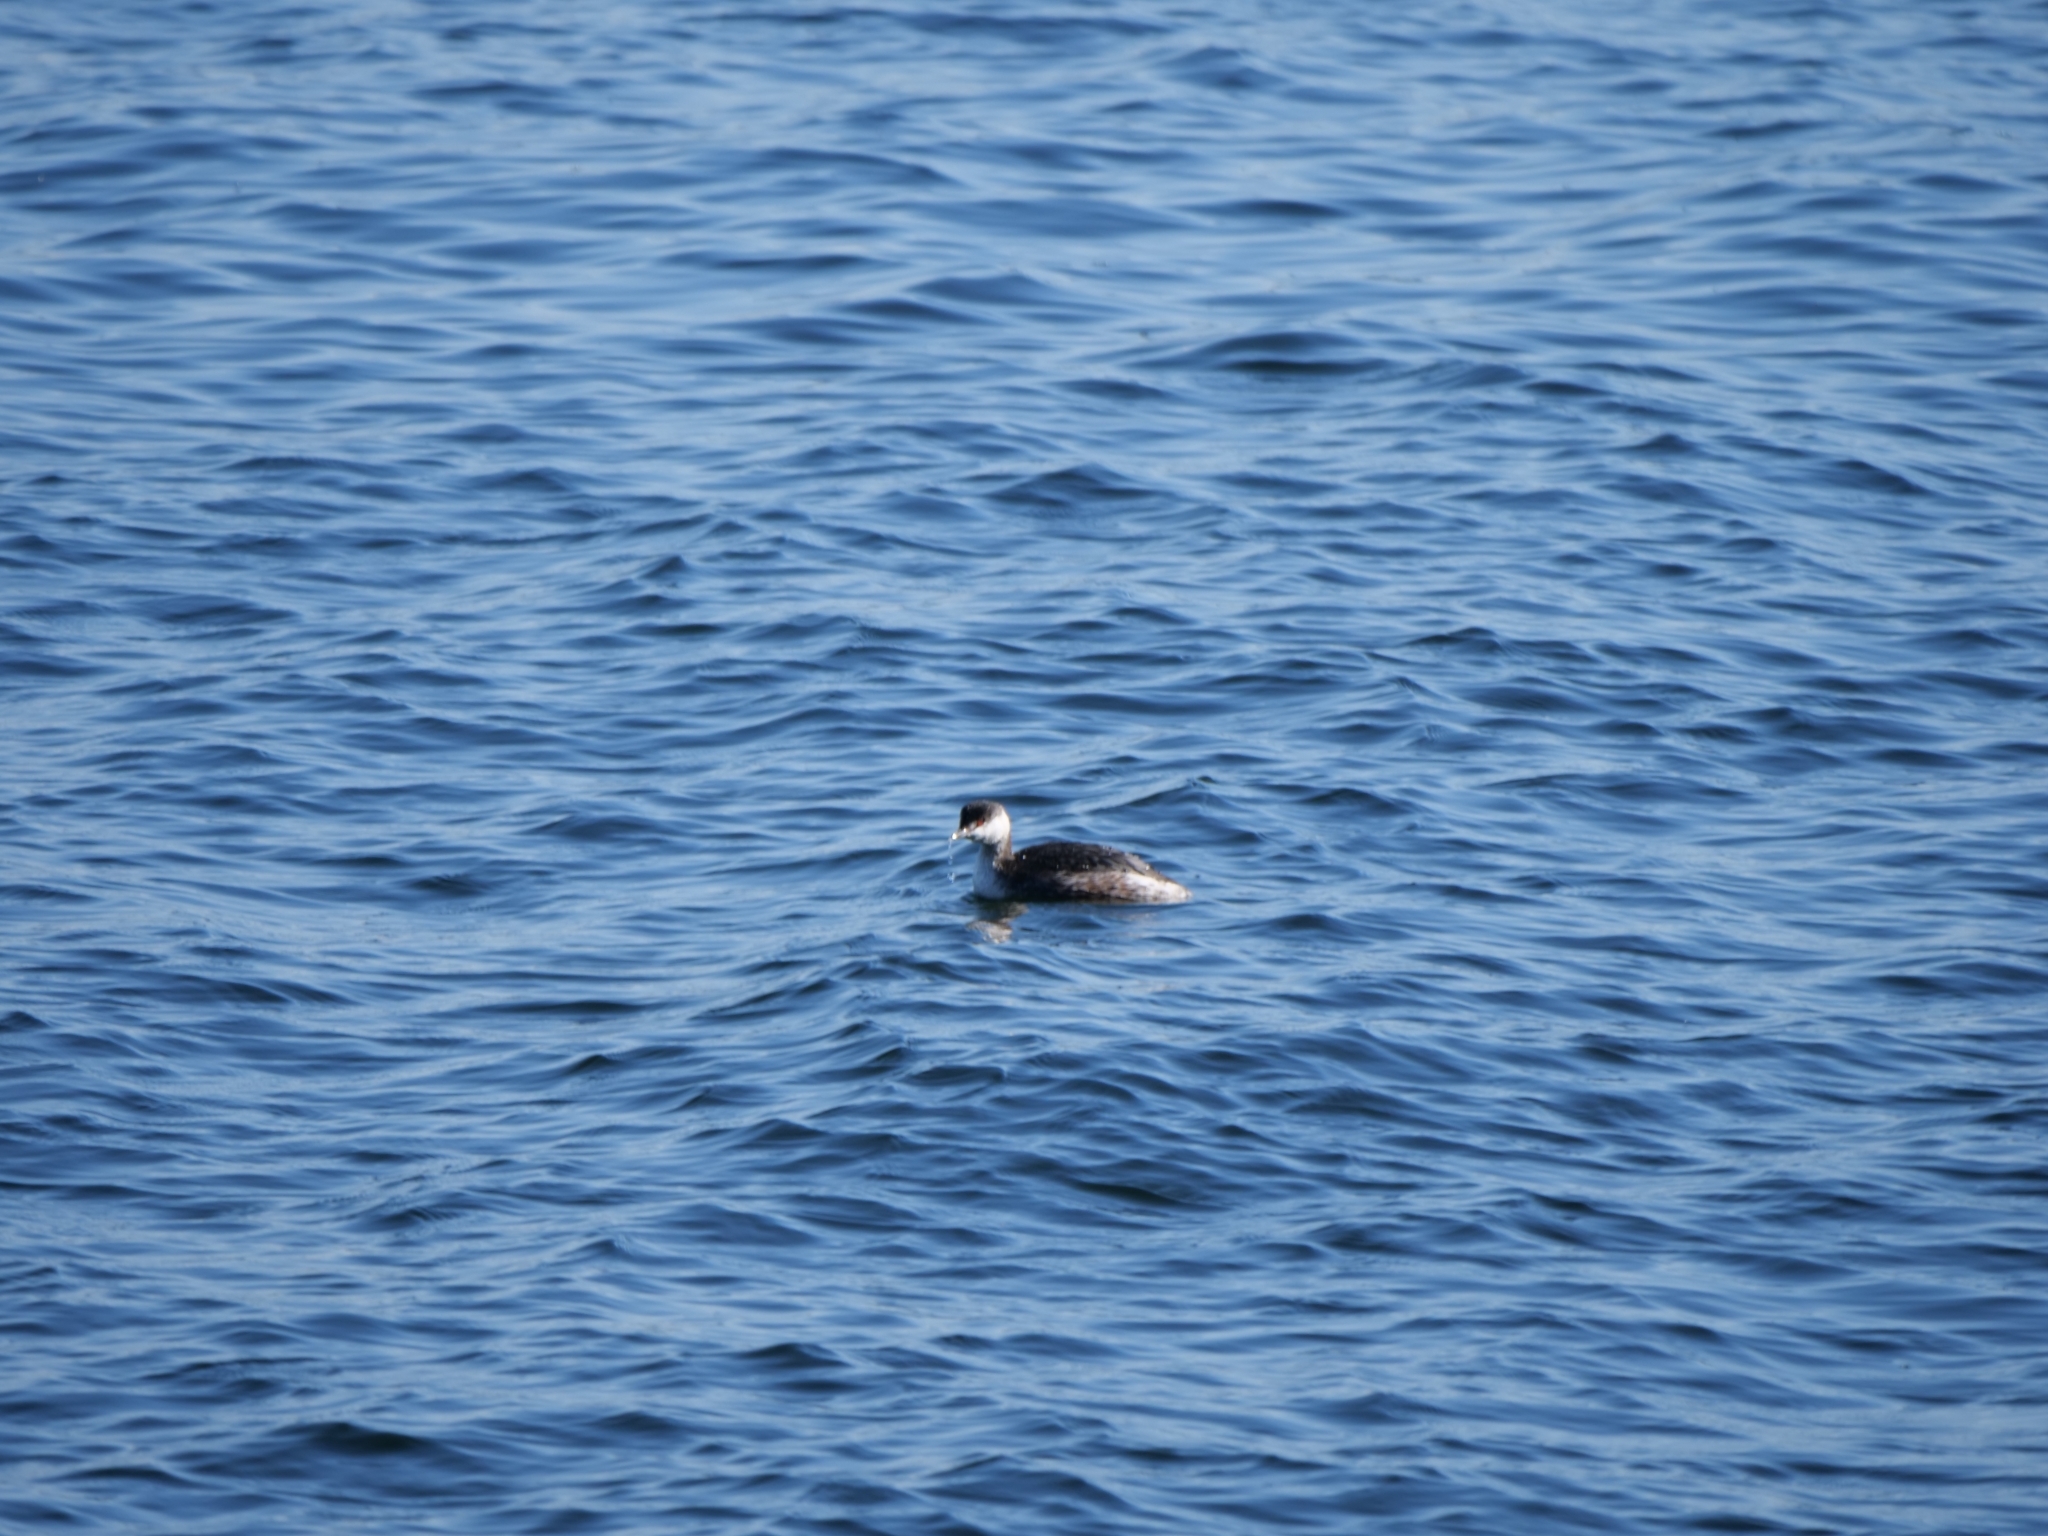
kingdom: Animalia
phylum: Chordata
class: Aves
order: Podicipediformes
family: Podicipedidae
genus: Podiceps
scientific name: Podiceps auritus
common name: Horned grebe
